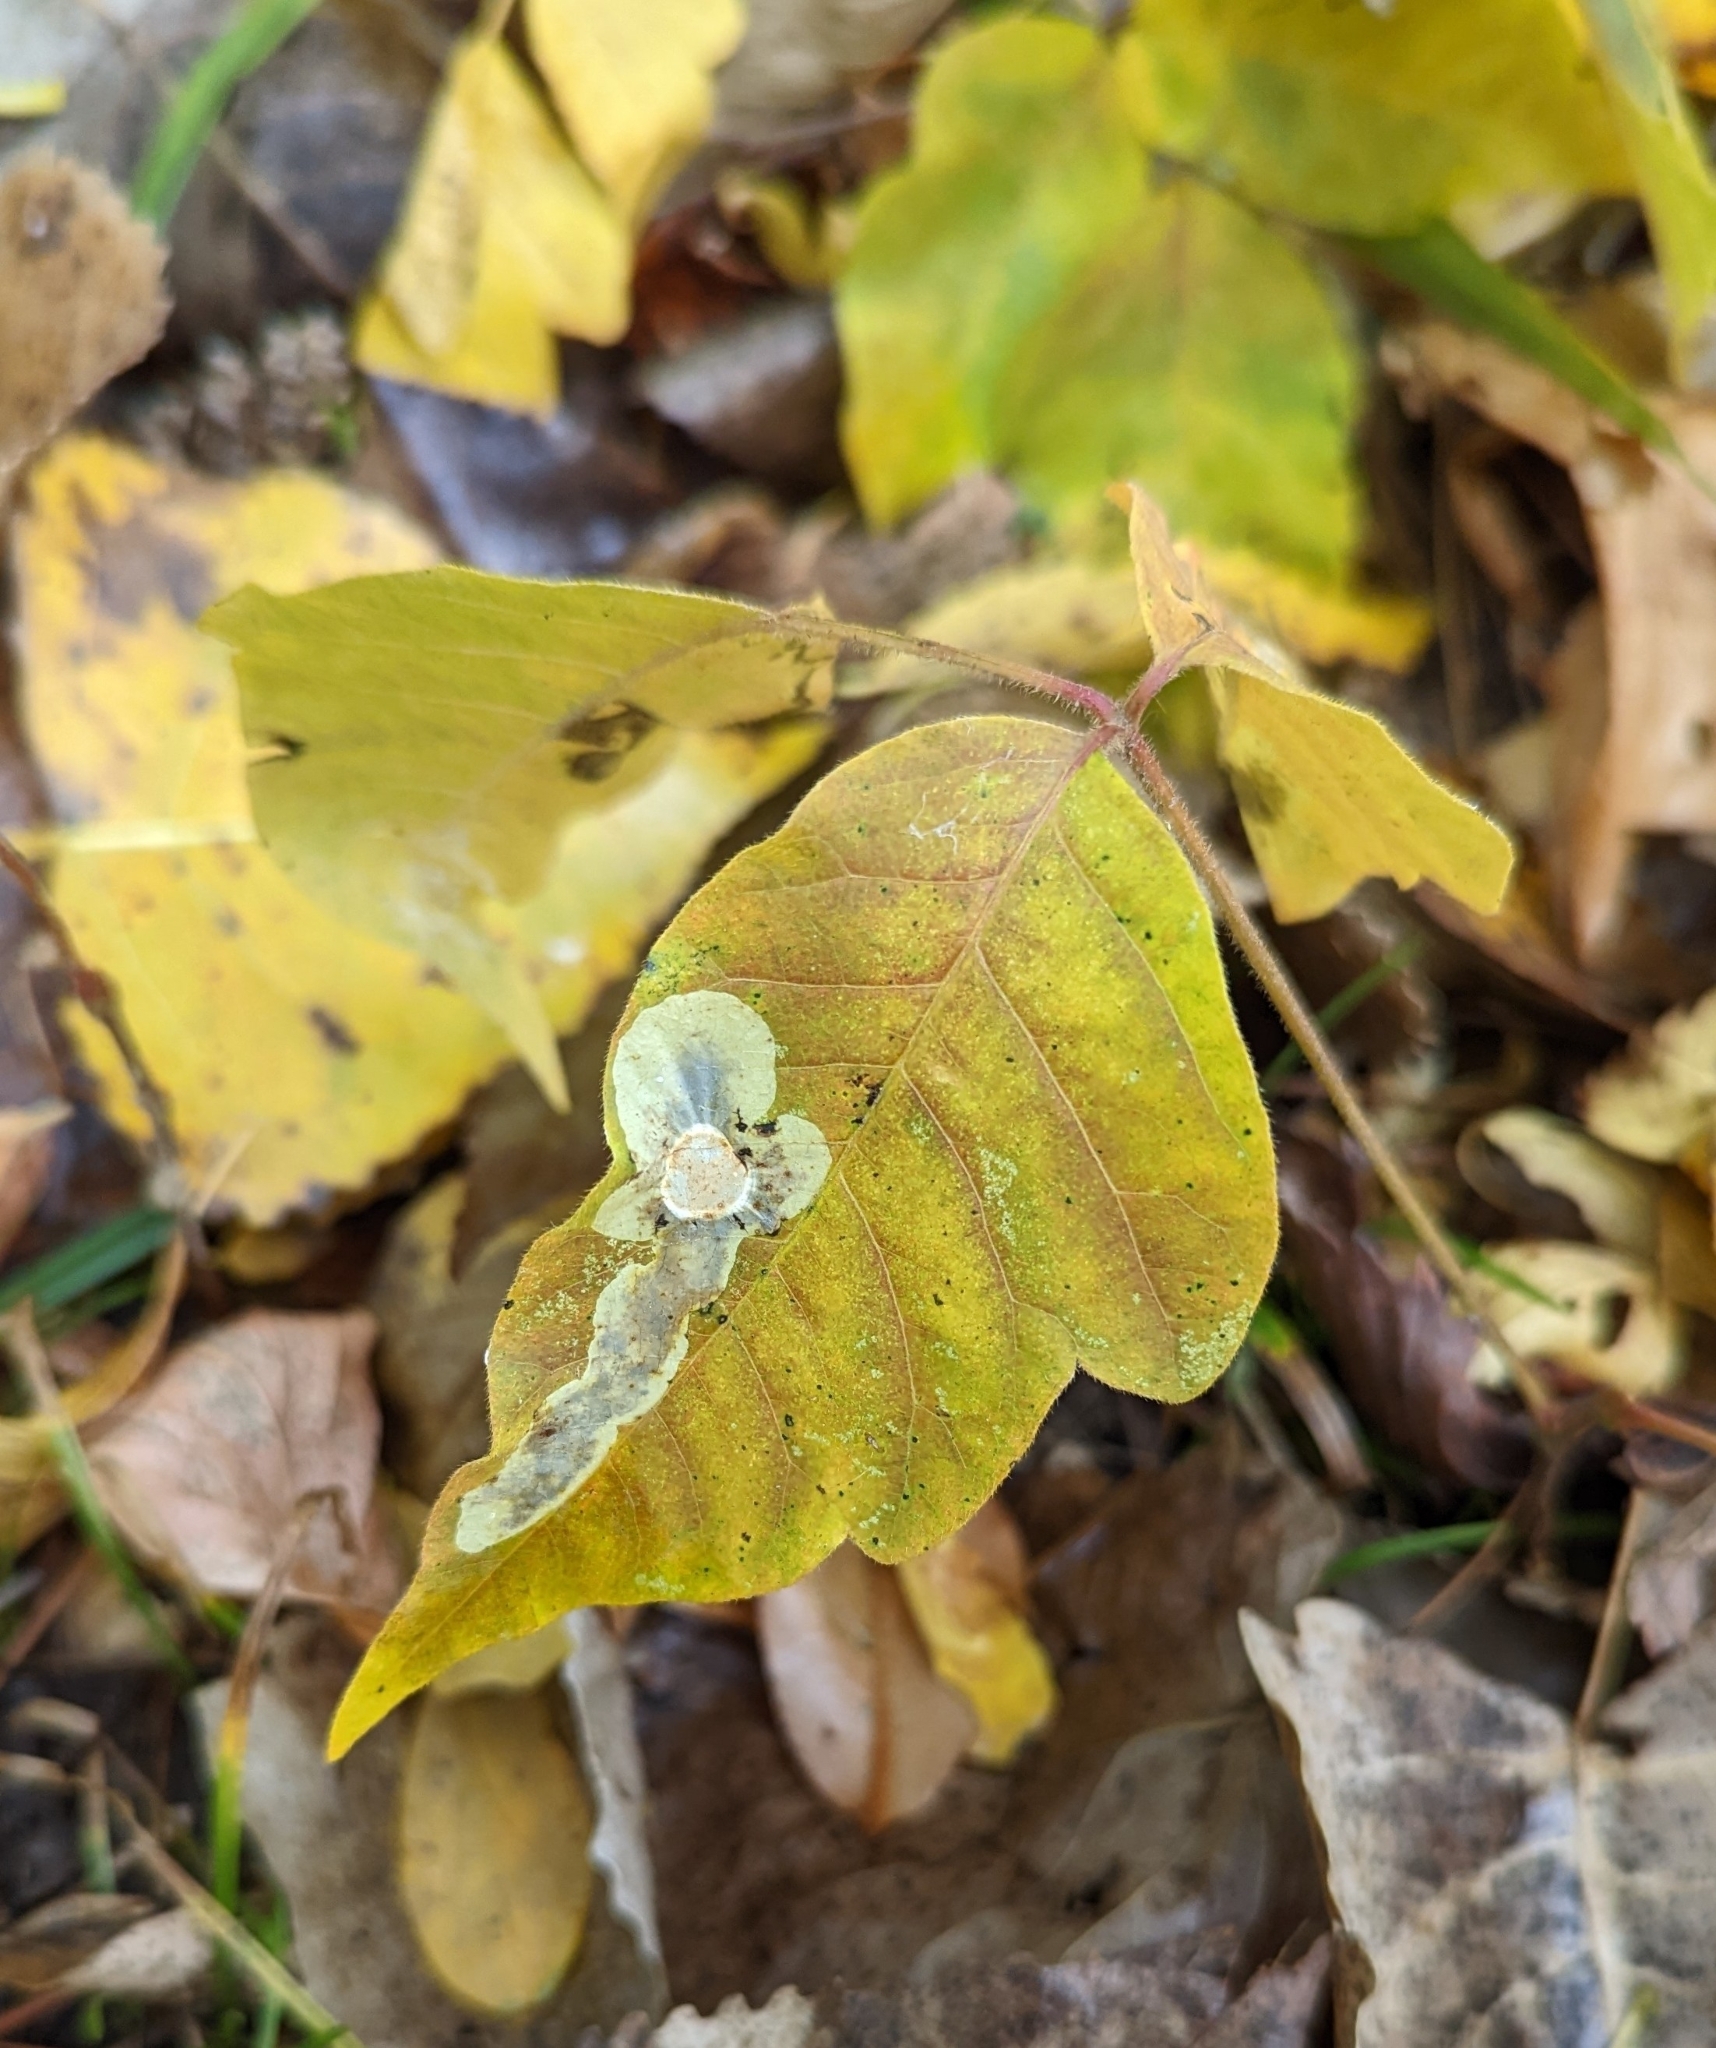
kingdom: Animalia
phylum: Arthropoda
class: Insecta
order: Lepidoptera
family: Gracillariidae
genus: Cameraria
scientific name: Cameraria guttifinitella
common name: Poison ivy leaf-miner moth
